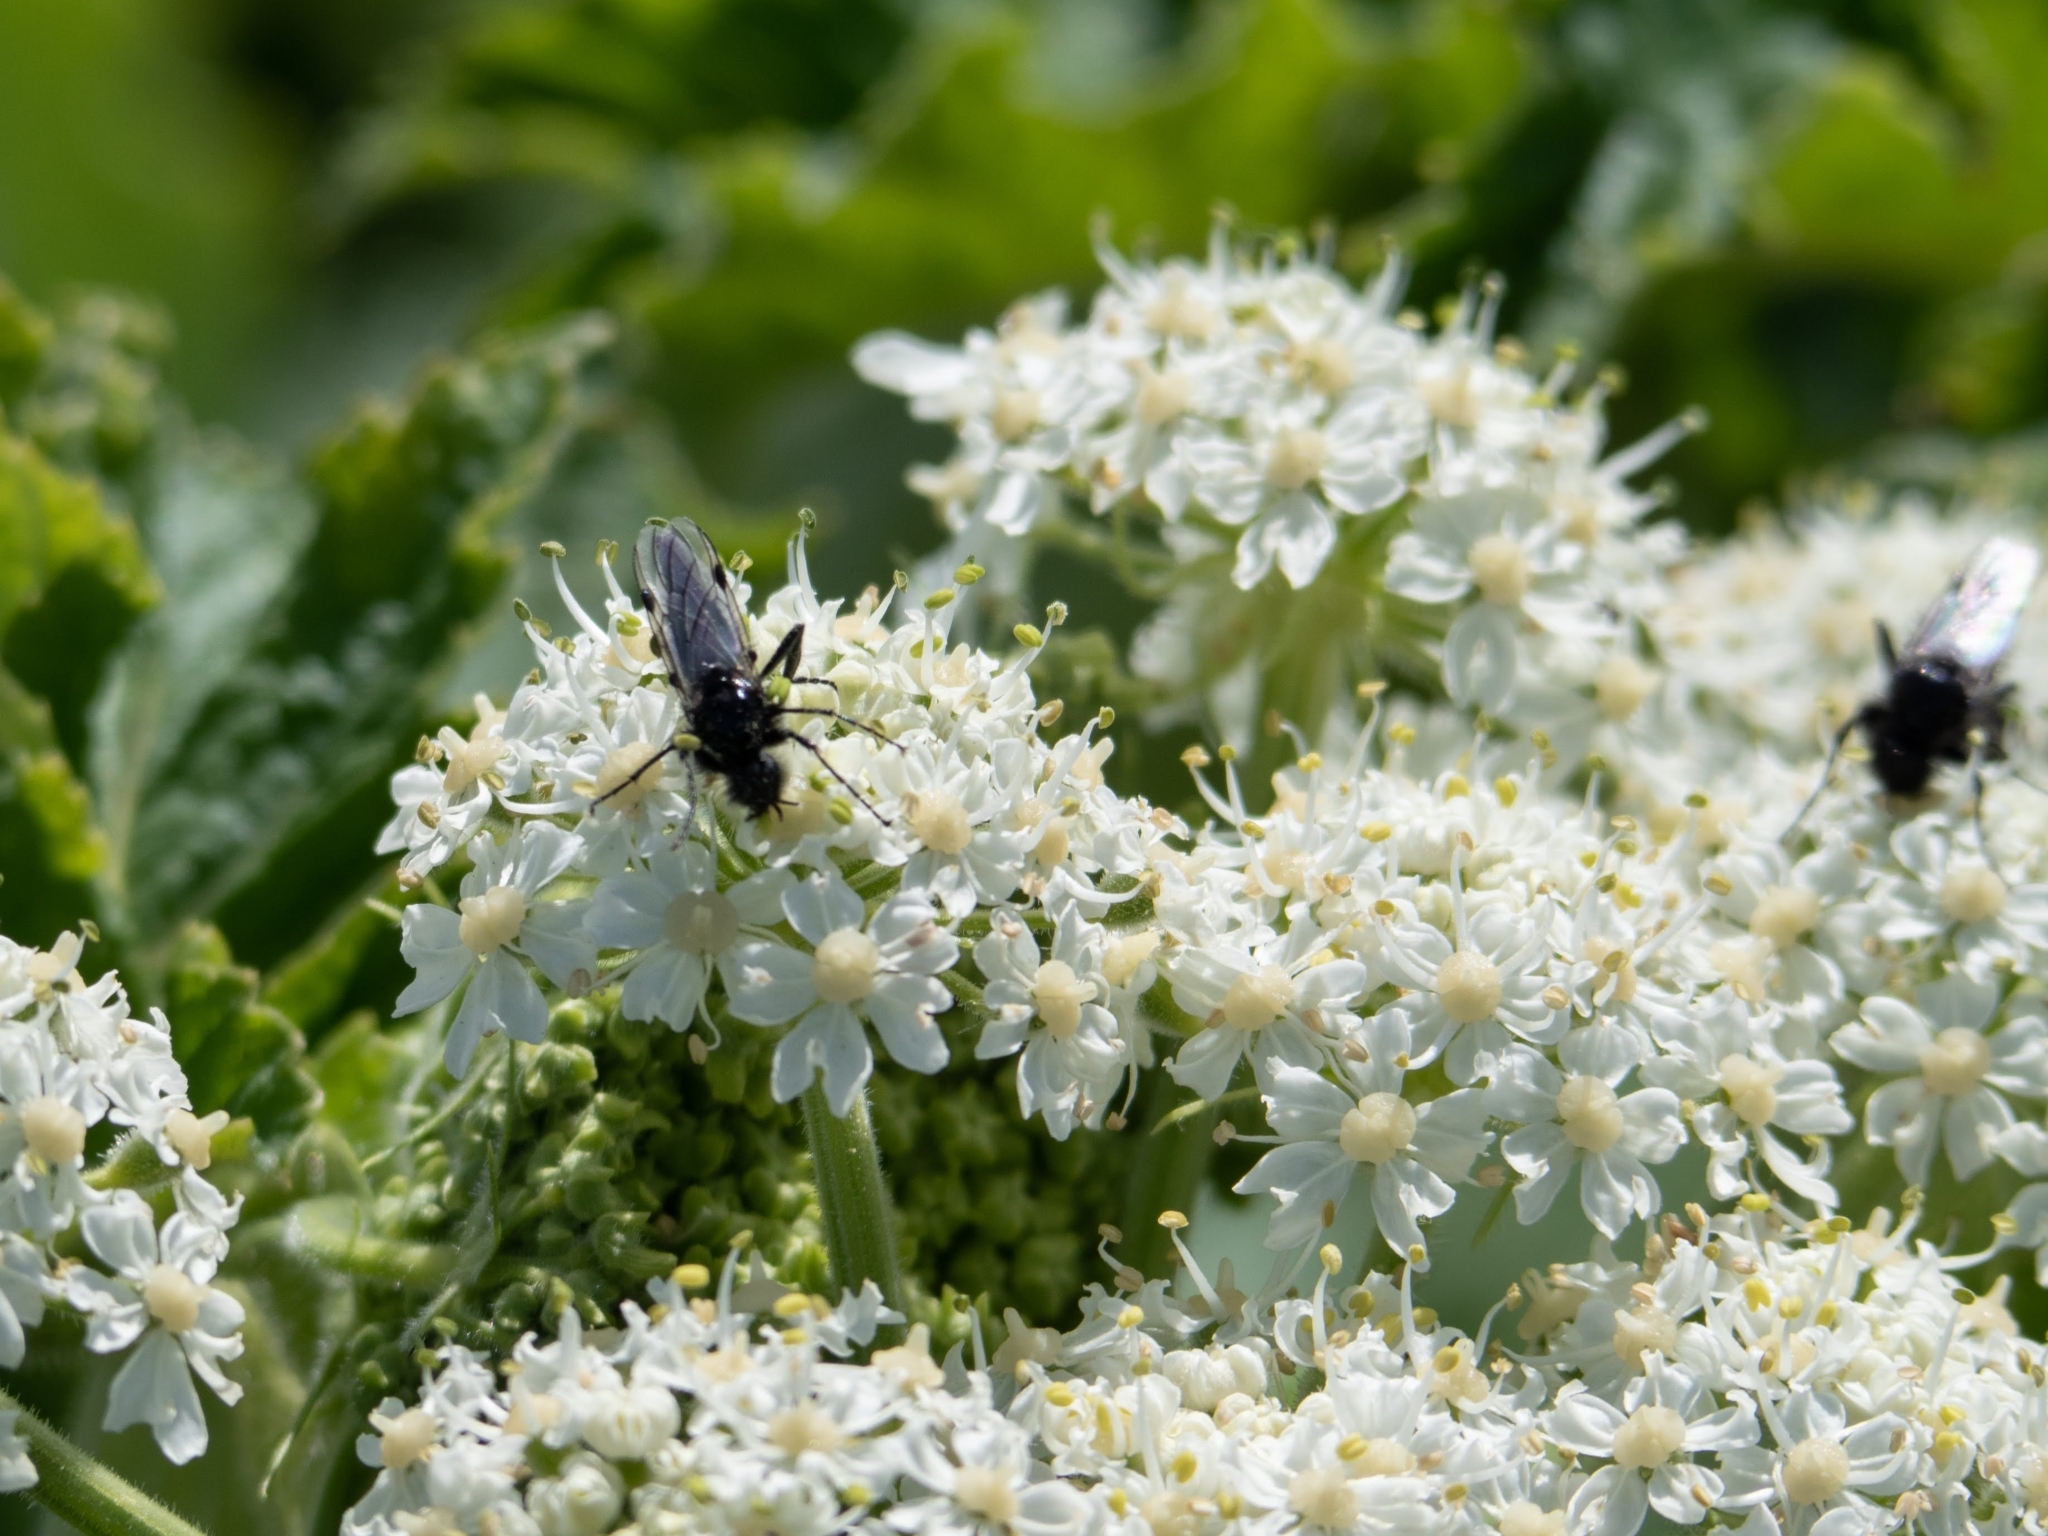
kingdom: Animalia
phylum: Arthropoda
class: Insecta
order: Diptera
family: Bibionidae
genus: Bibio
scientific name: Bibio necotus
